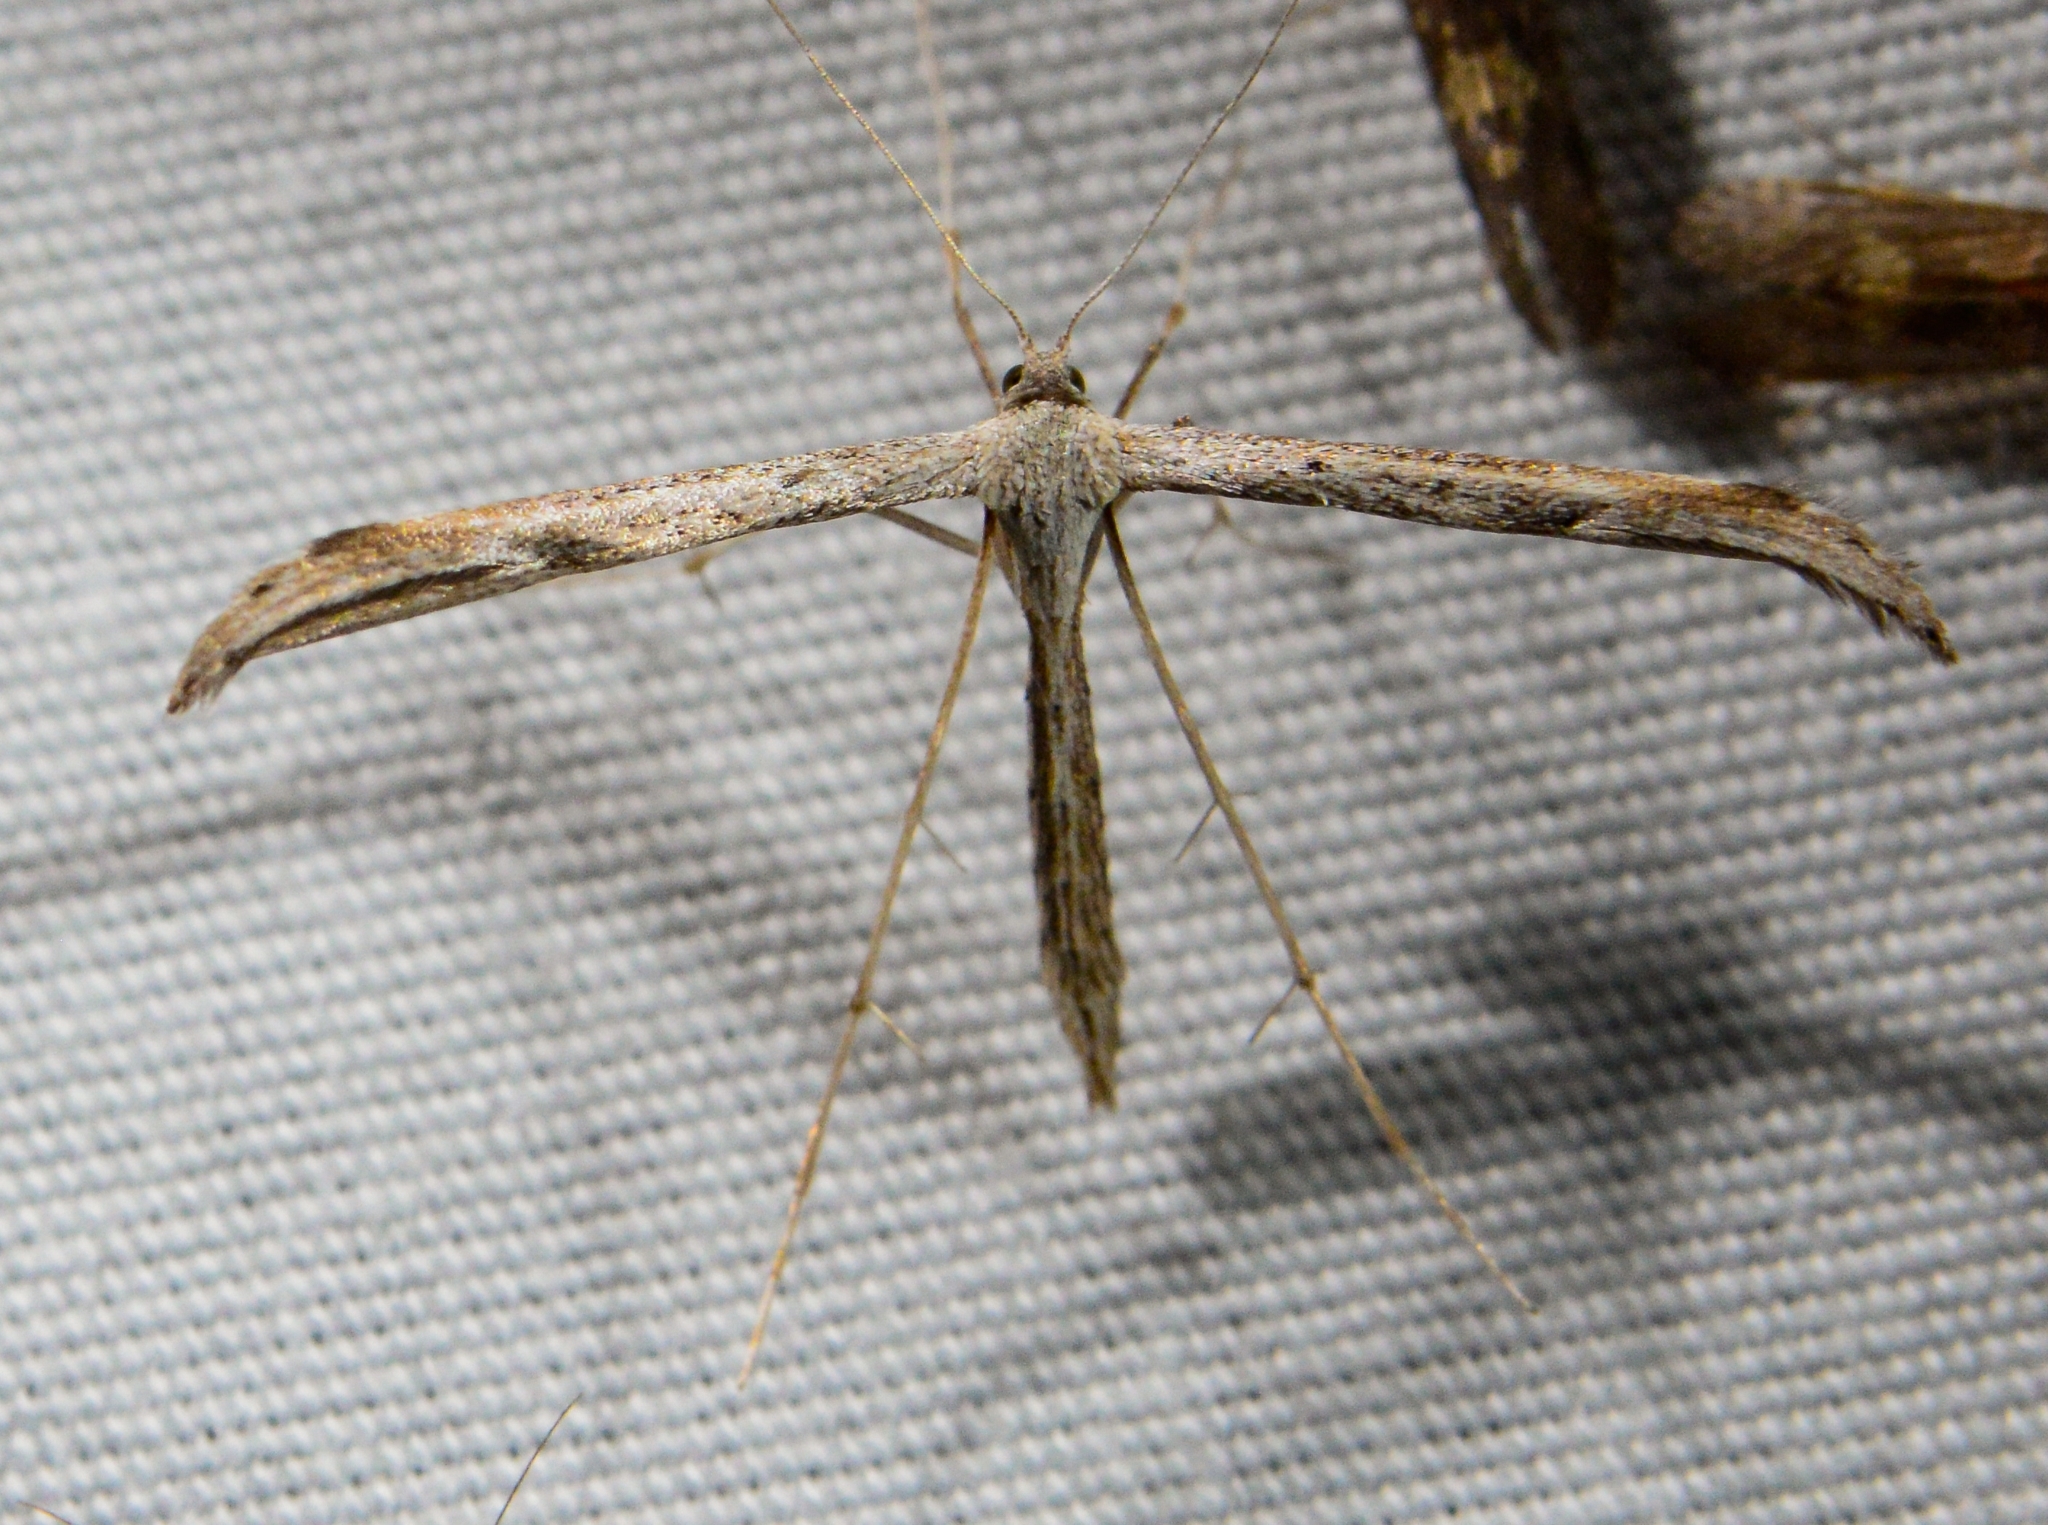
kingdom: Animalia
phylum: Arthropoda
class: Insecta
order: Lepidoptera
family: Pterophoridae
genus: Emmelina
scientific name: Emmelina monodactyla
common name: Common plume
